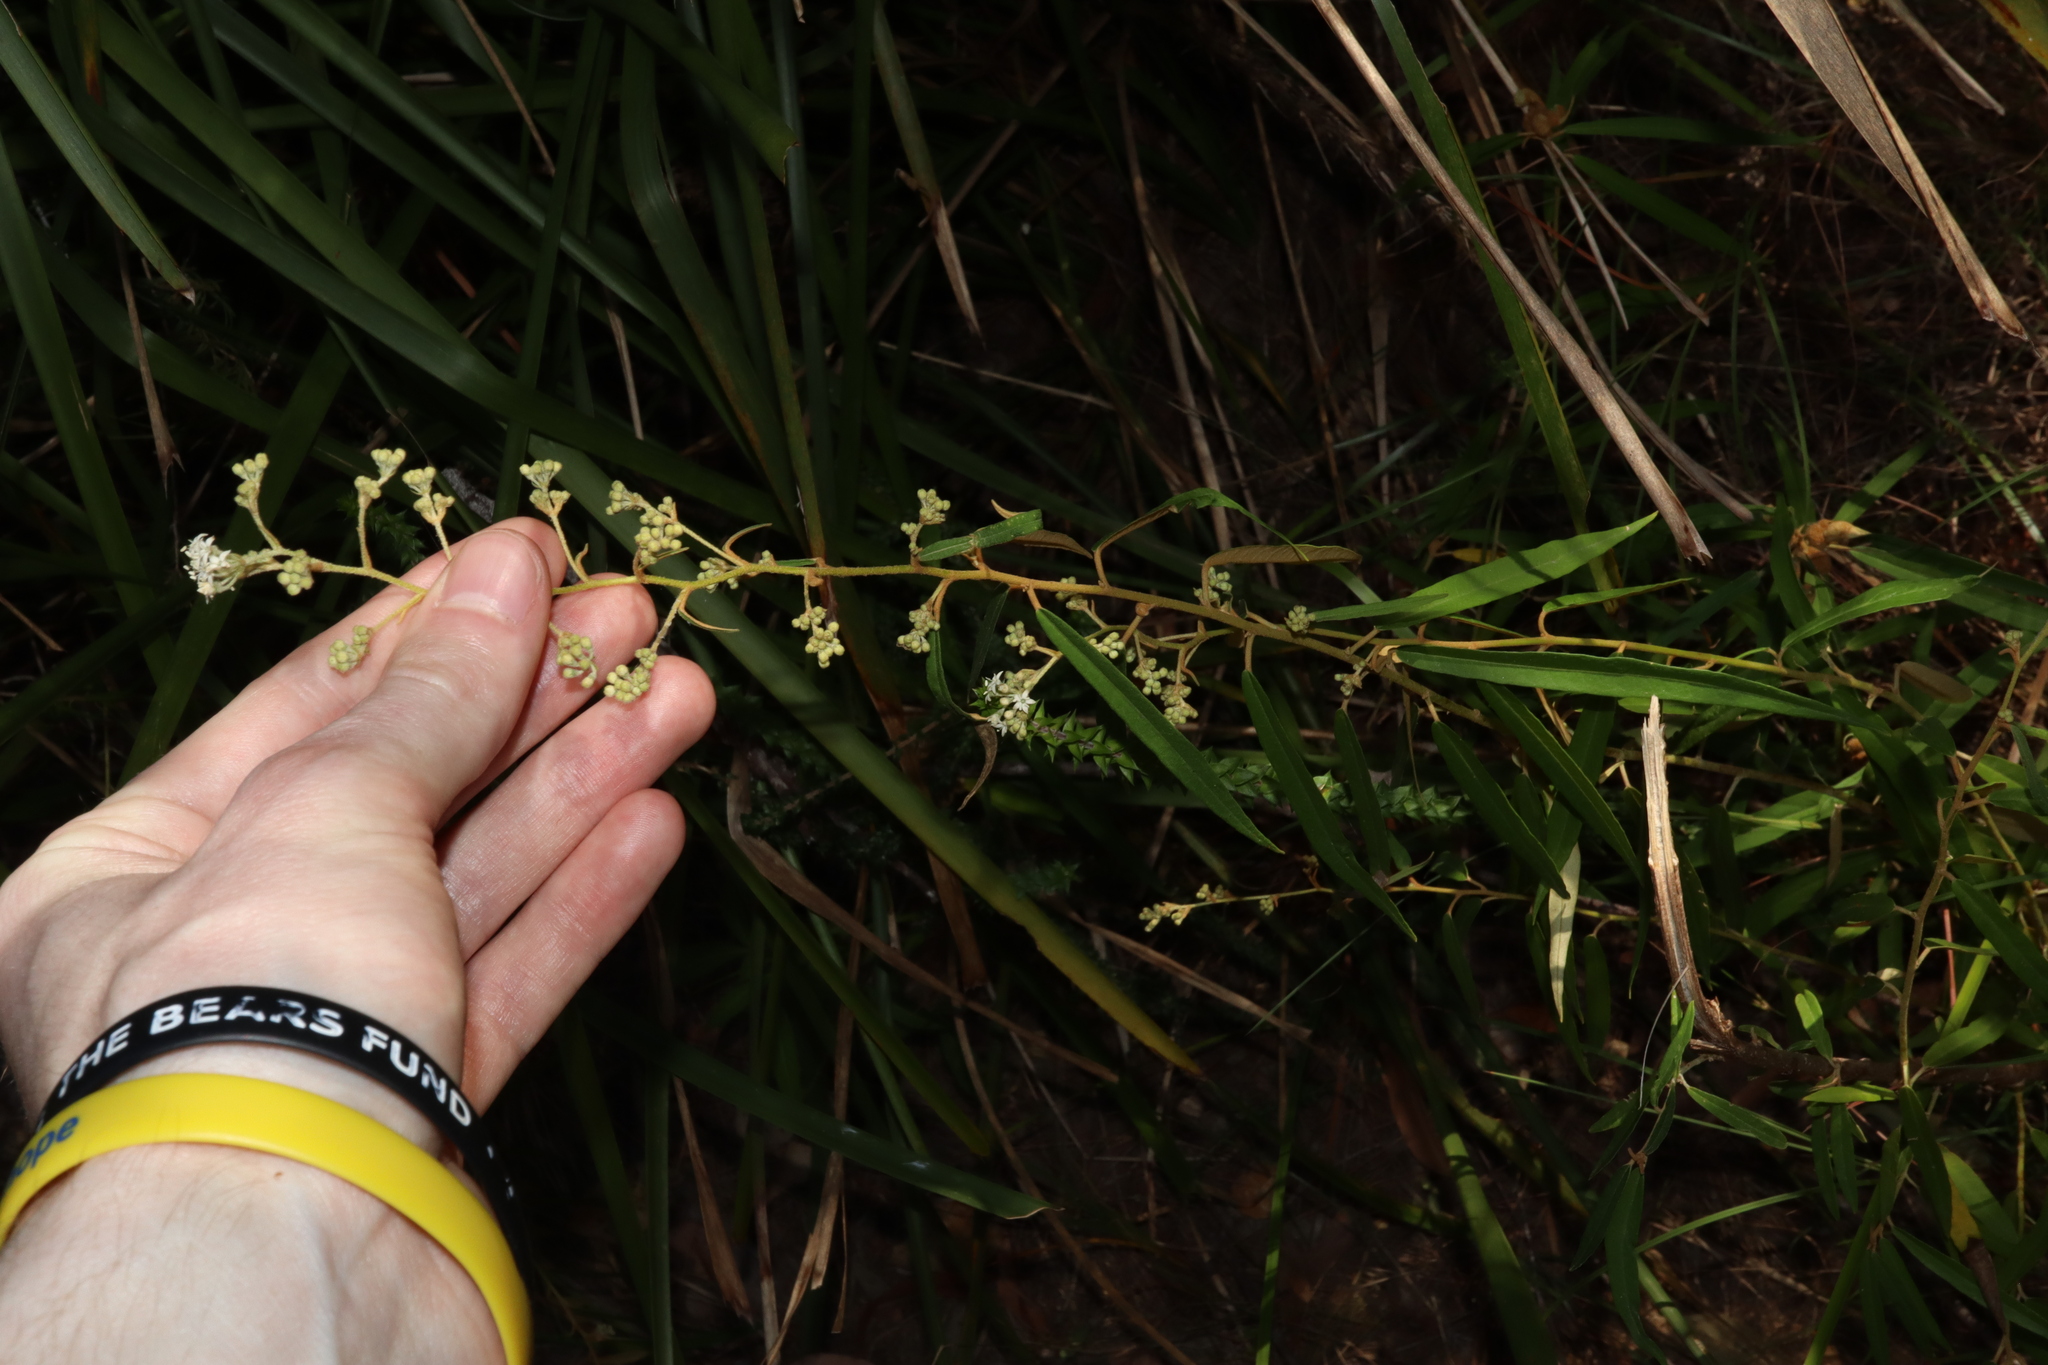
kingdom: Plantae
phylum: Tracheophyta
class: Magnoliopsida
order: Apiales
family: Araliaceae
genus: Astrotricha
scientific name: Astrotricha longifolia
